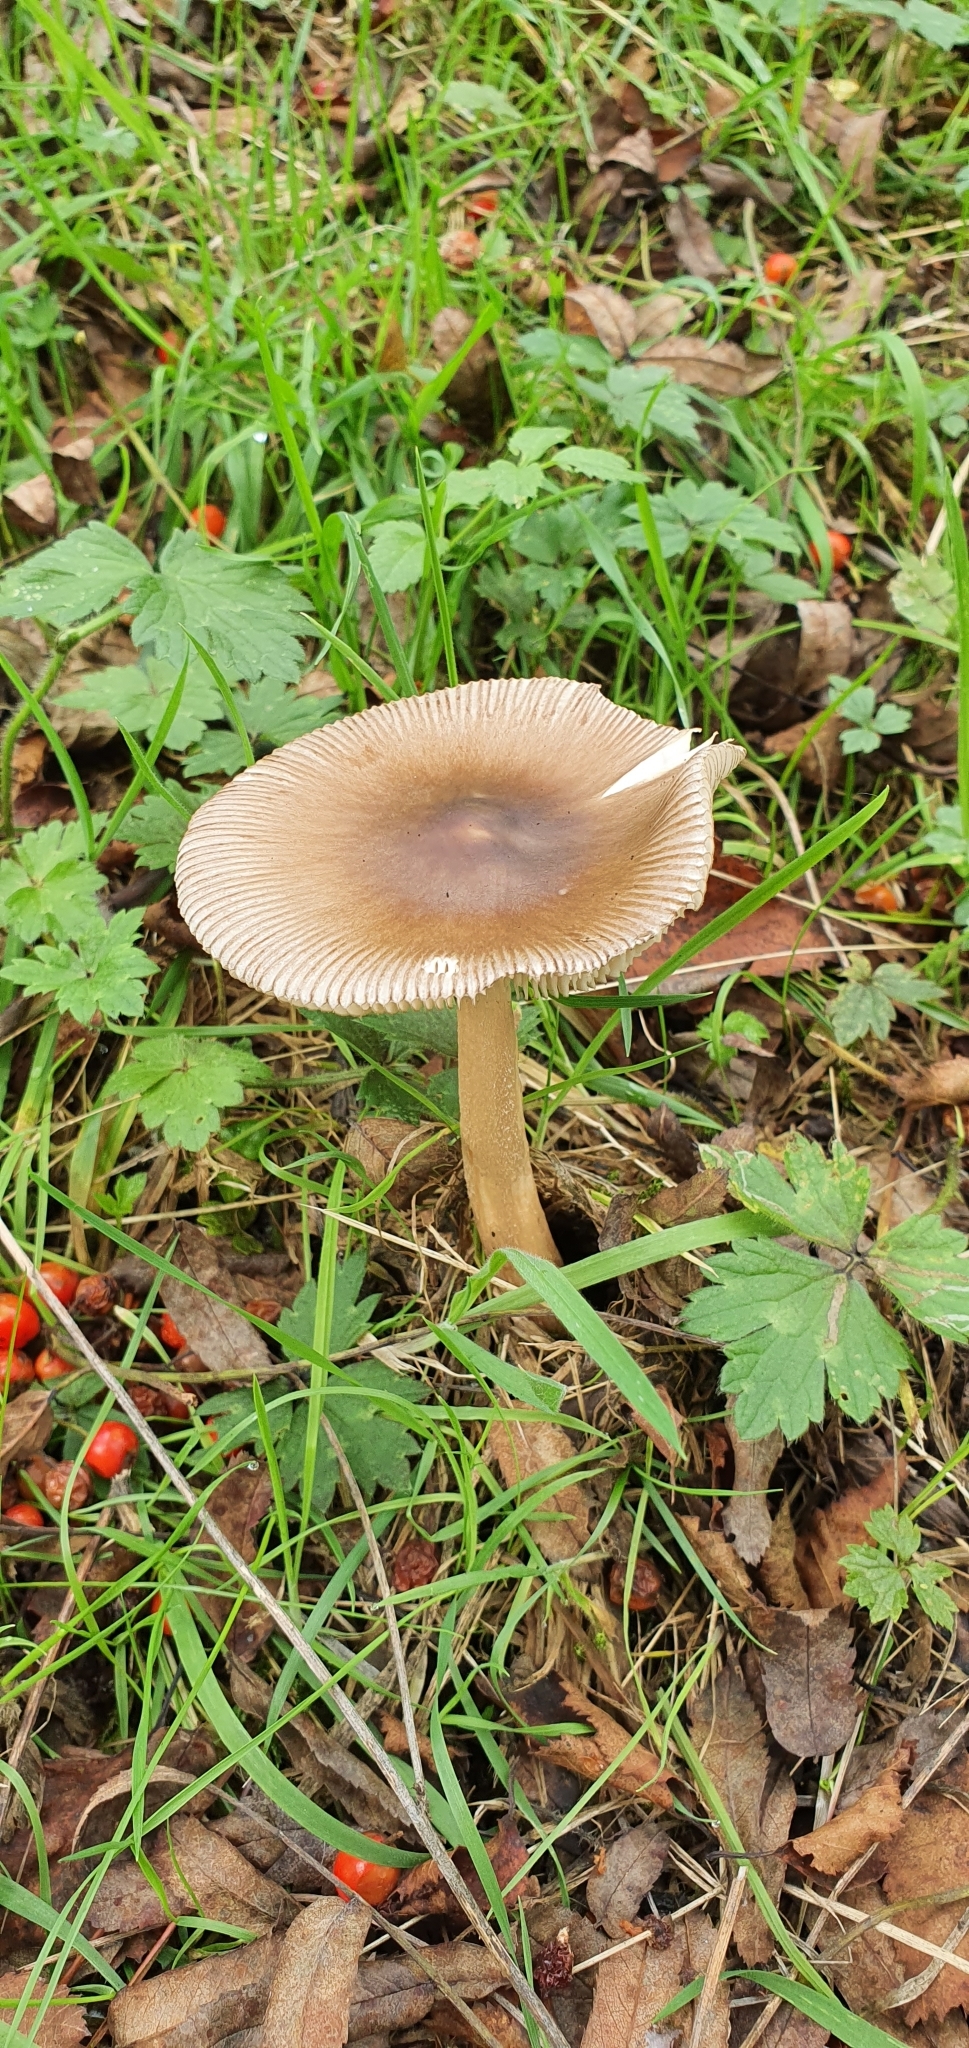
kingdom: Fungi
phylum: Basidiomycota
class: Agaricomycetes
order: Agaricales
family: Amanitaceae
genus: Amanita
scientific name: Amanita fulva
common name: Tawny grisette
